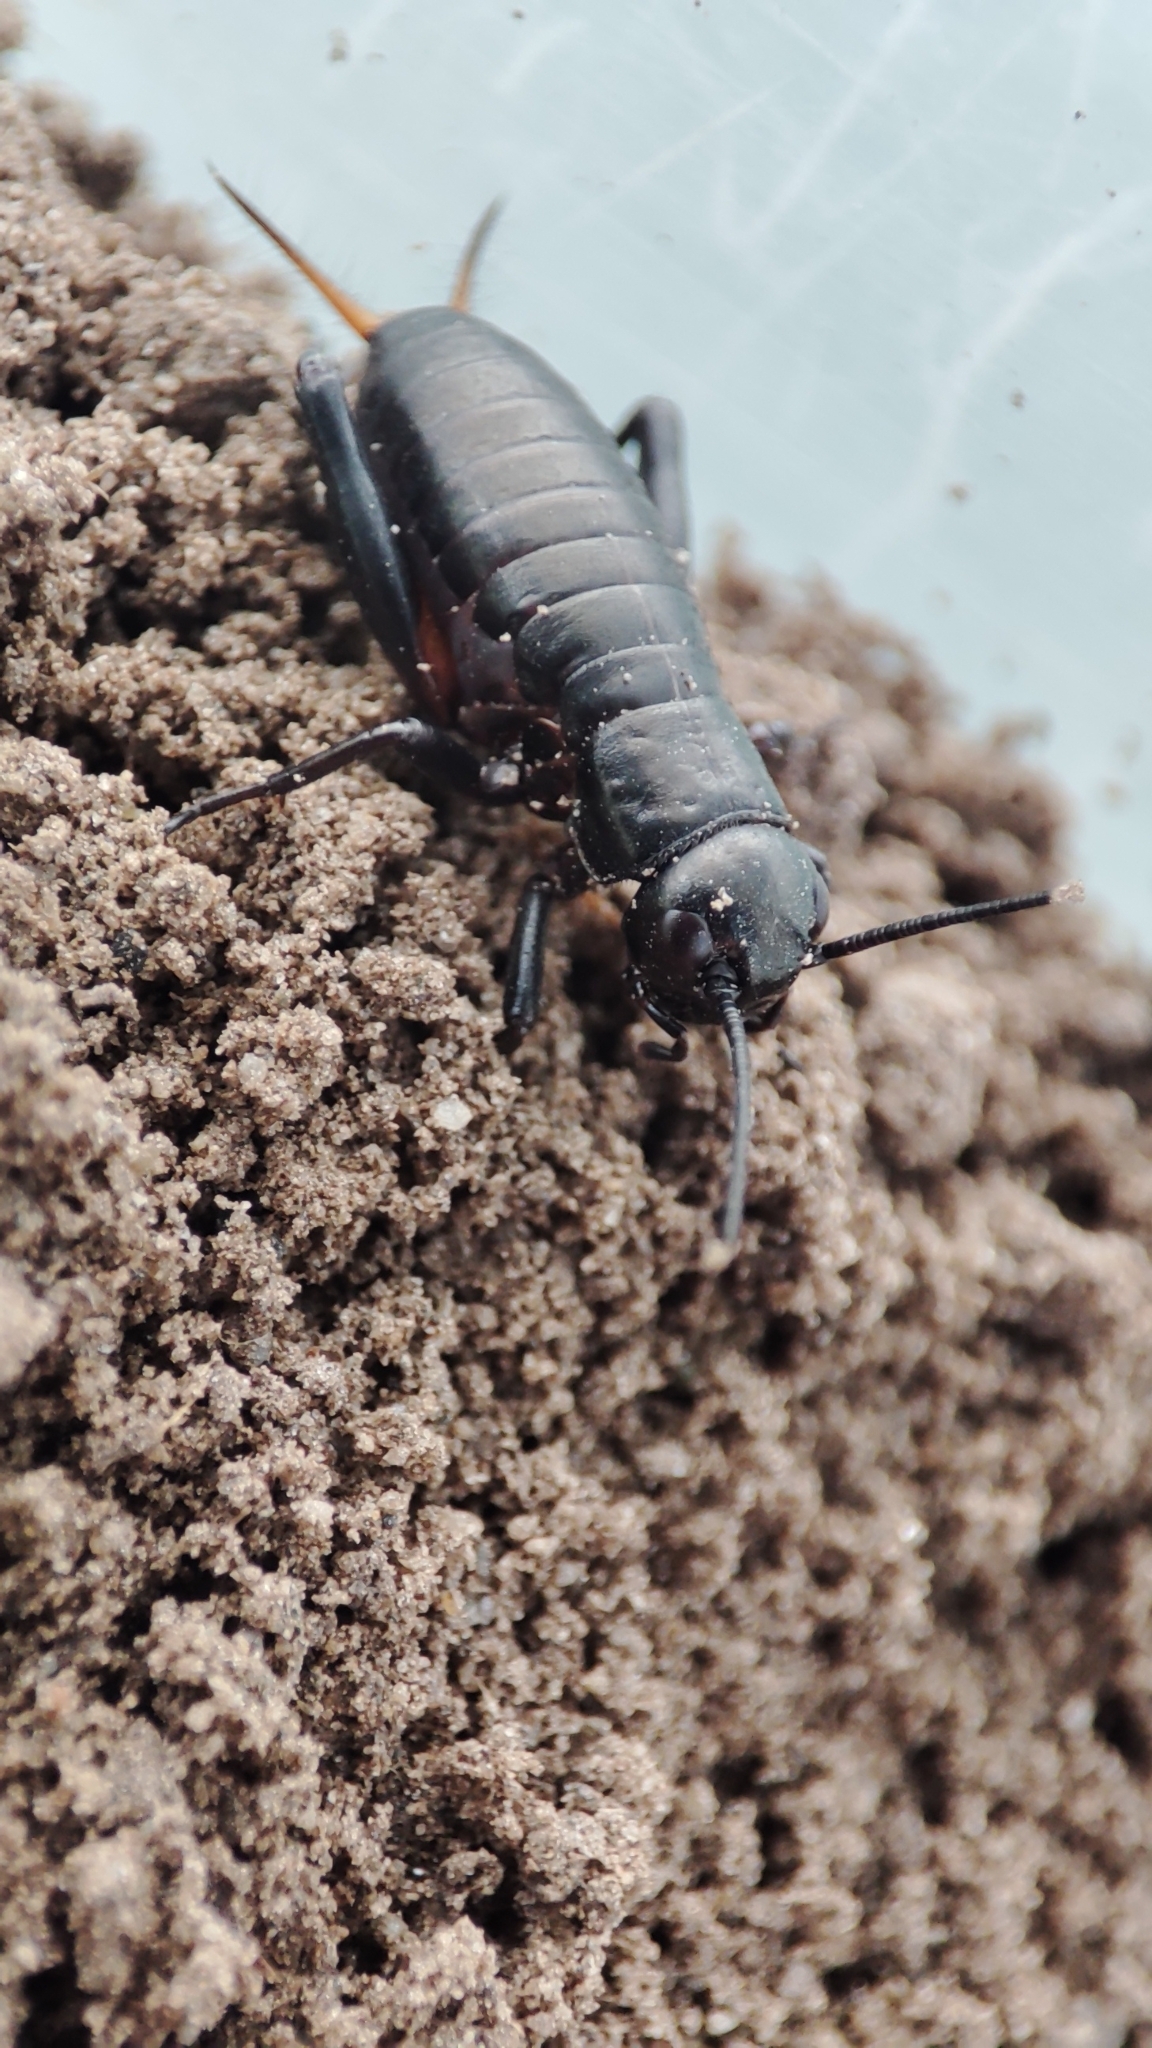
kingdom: Animalia
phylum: Arthropoda
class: Insecta
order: Orthoptera
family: Gryllidae
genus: Gryllus
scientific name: Gryllus campestris
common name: Field cricket
